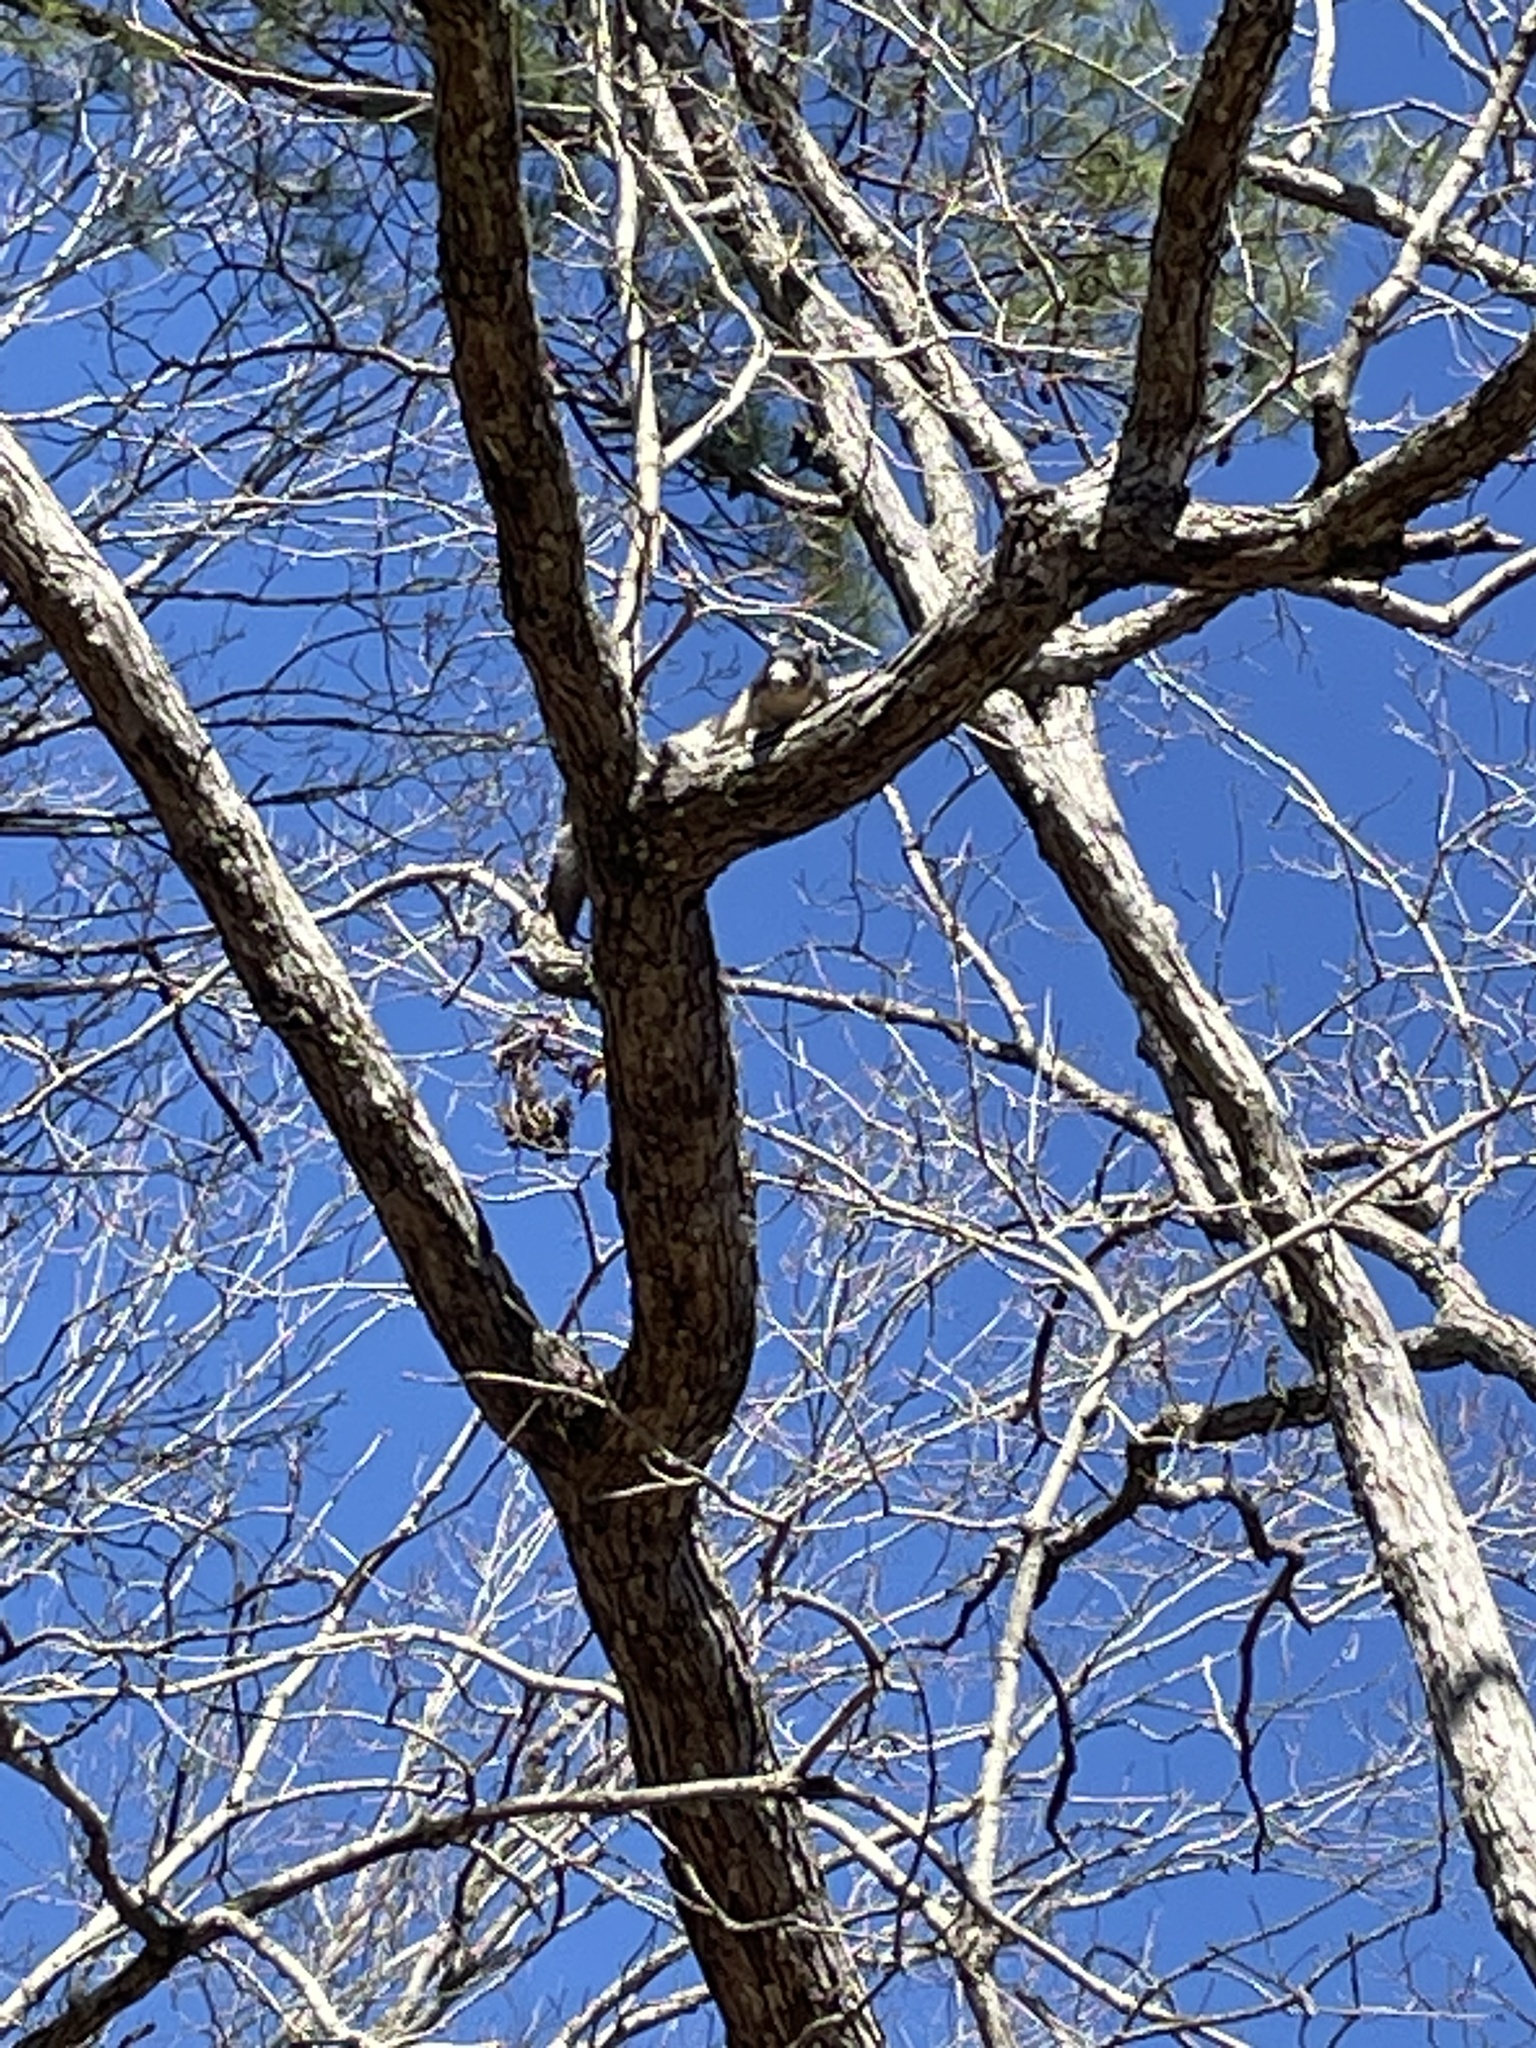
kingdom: Animalia
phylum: Chordata
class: Mammalia
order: Rodentia
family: Sciuridae
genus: Sciurus
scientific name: Sciurus niger
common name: Fox squirrel
